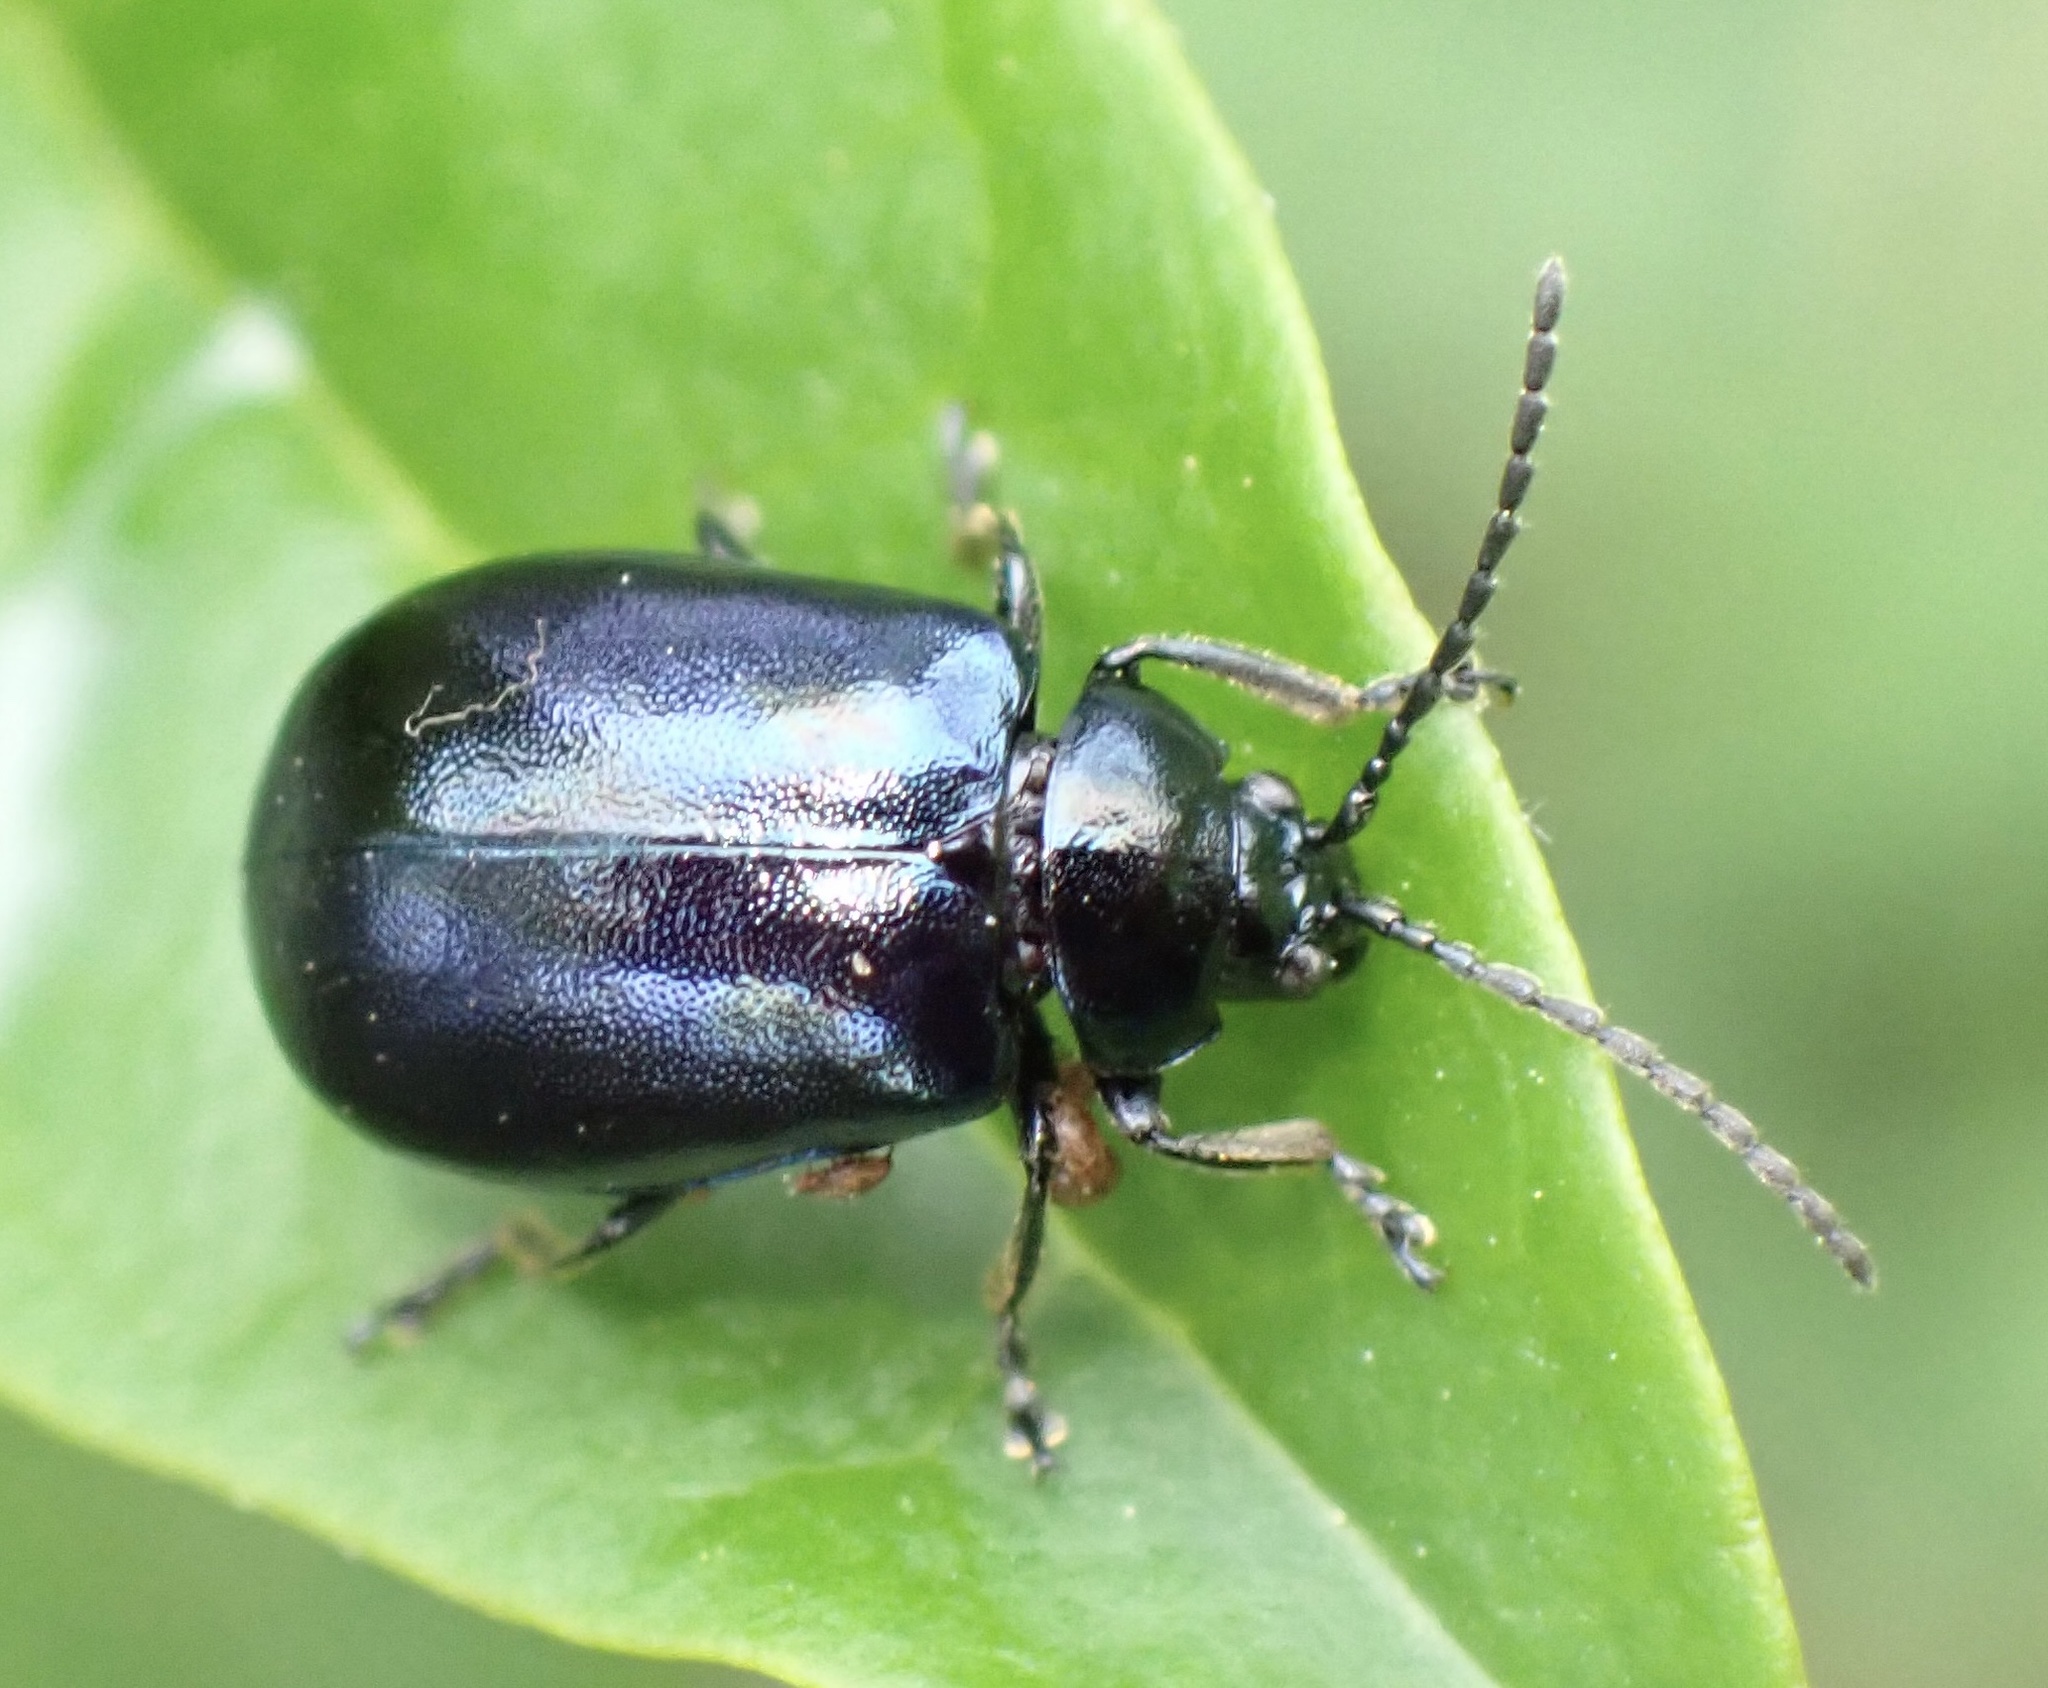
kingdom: Animalia
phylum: Arthropoda
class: Insecta
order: Coleoptera
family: Chrysomelidae
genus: Agelastica
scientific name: Agelastica alni
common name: Alder leaf beetle
